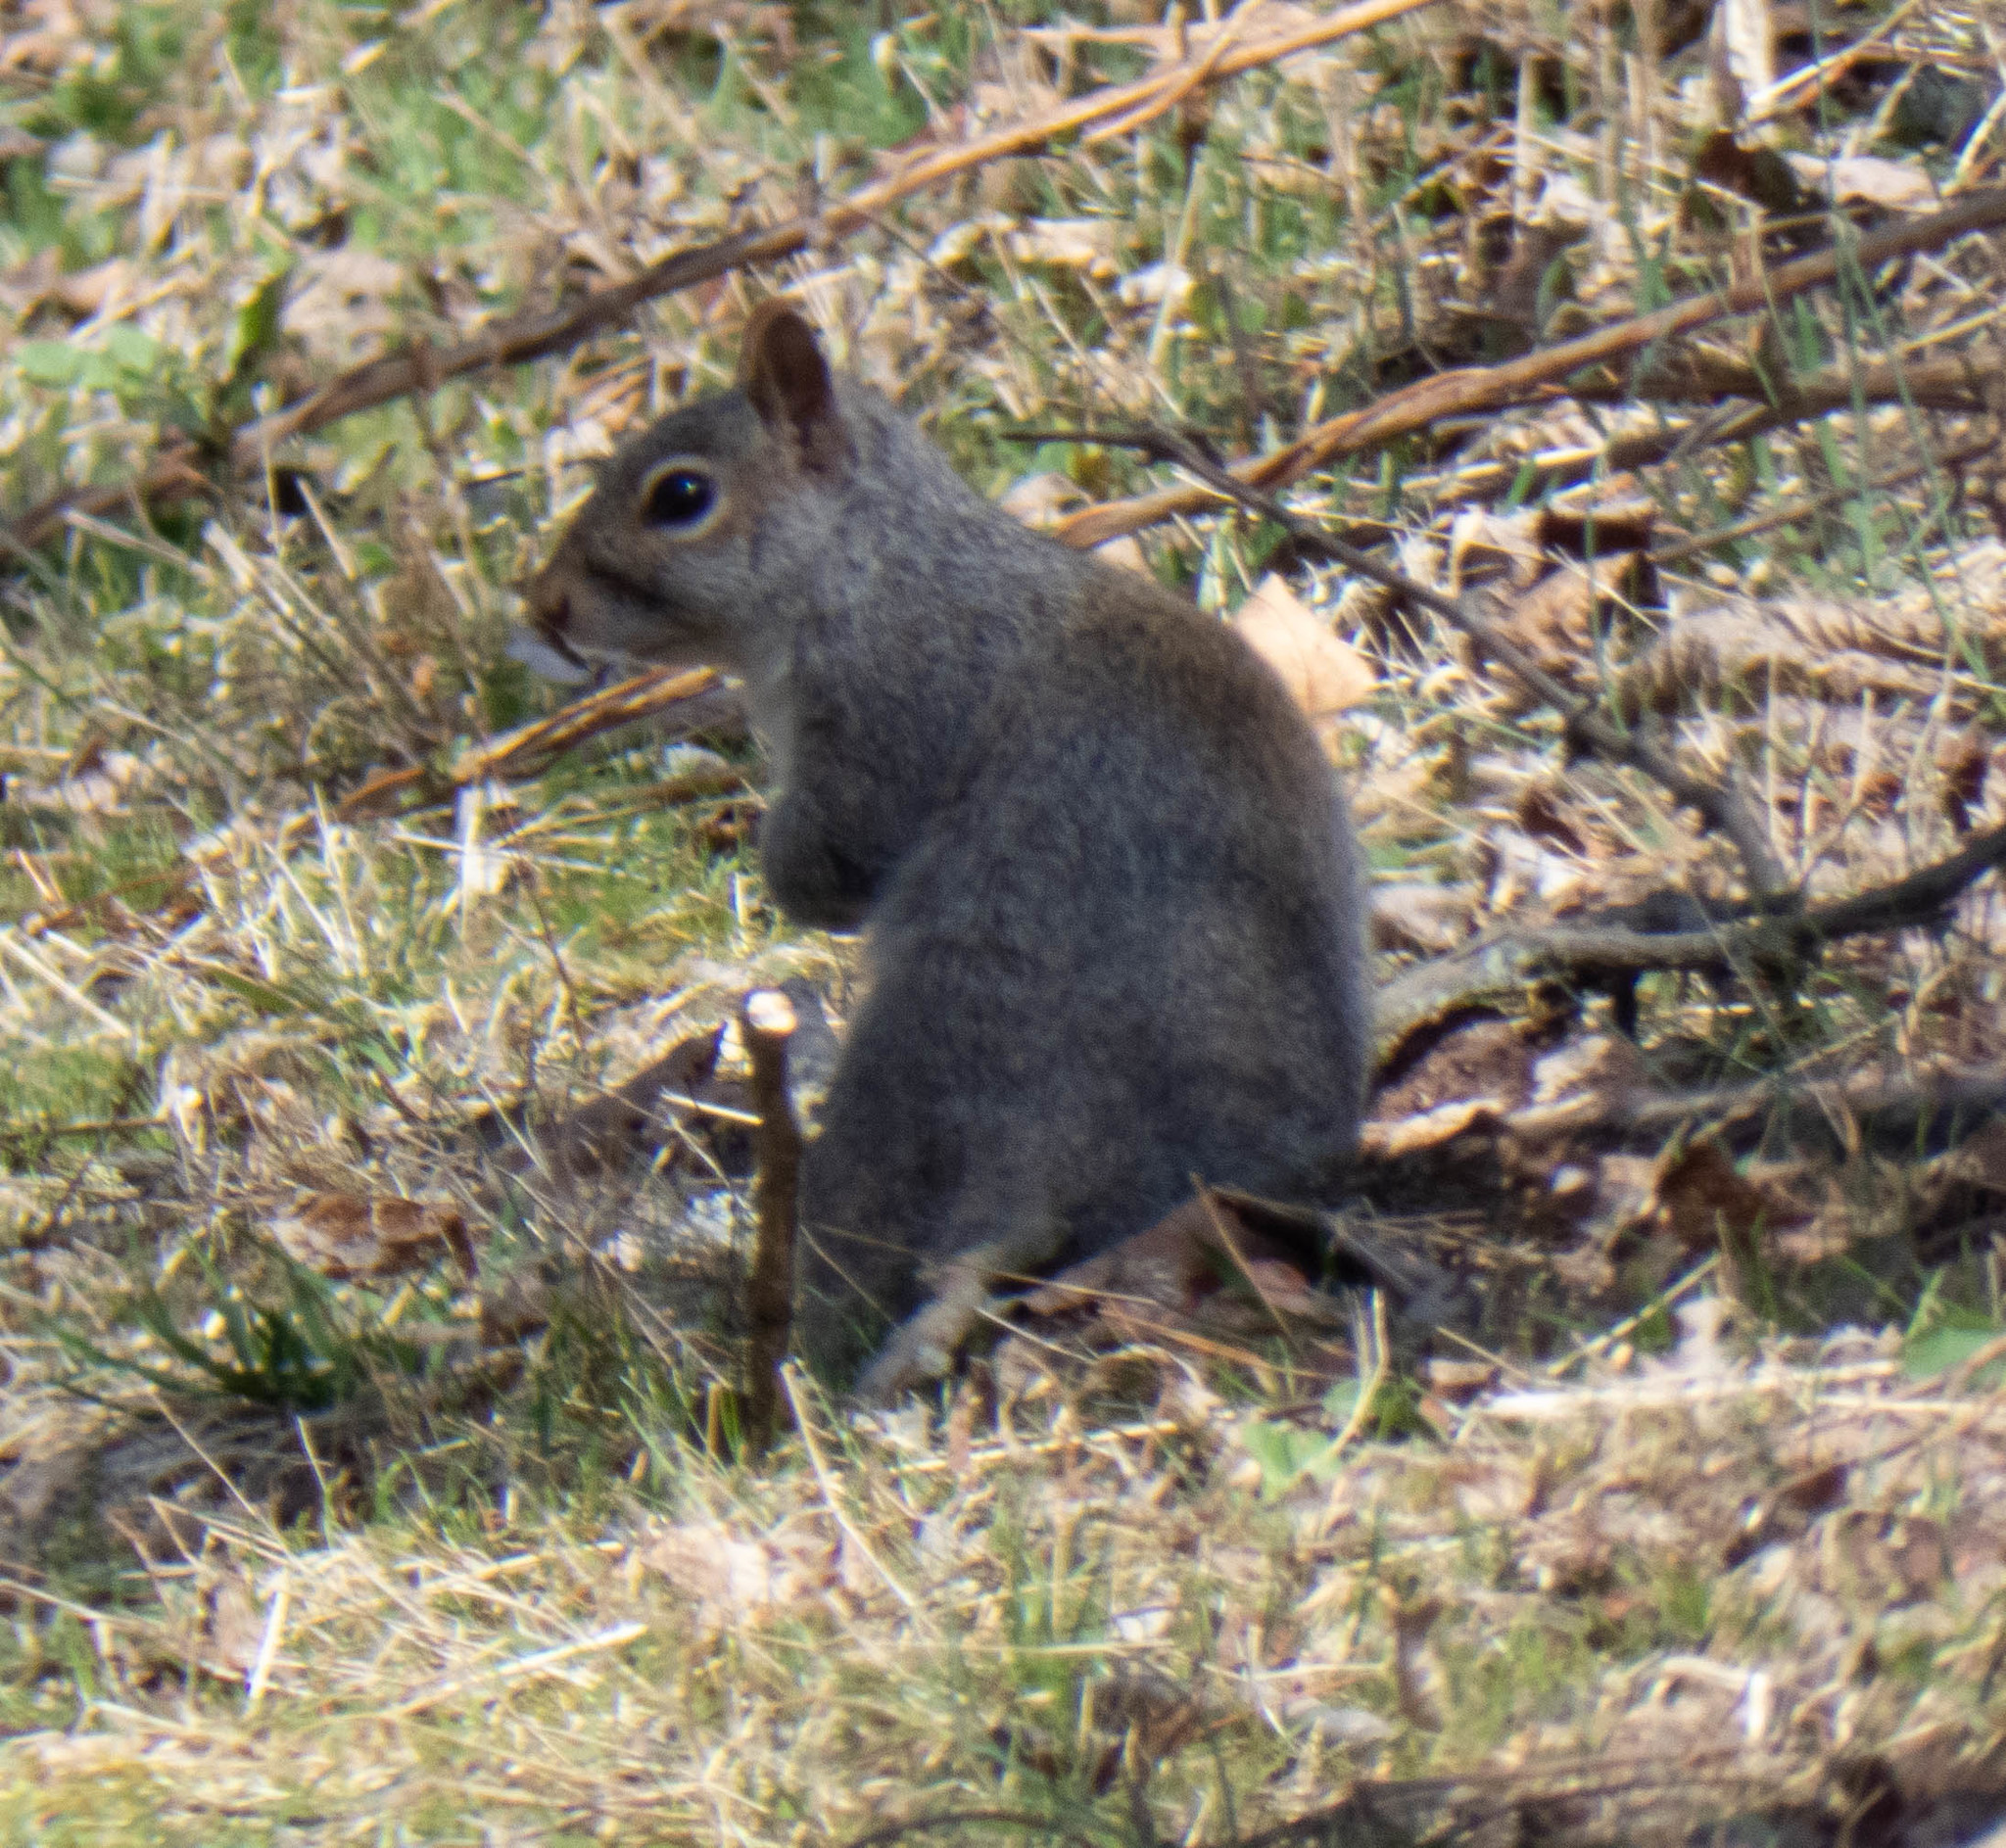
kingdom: Animalia
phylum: Chordata
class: Mammalia
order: Rodentia
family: Sciuridae
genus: Sciurus
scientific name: Sciurus carolinensis
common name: Eastern gray squirrel
